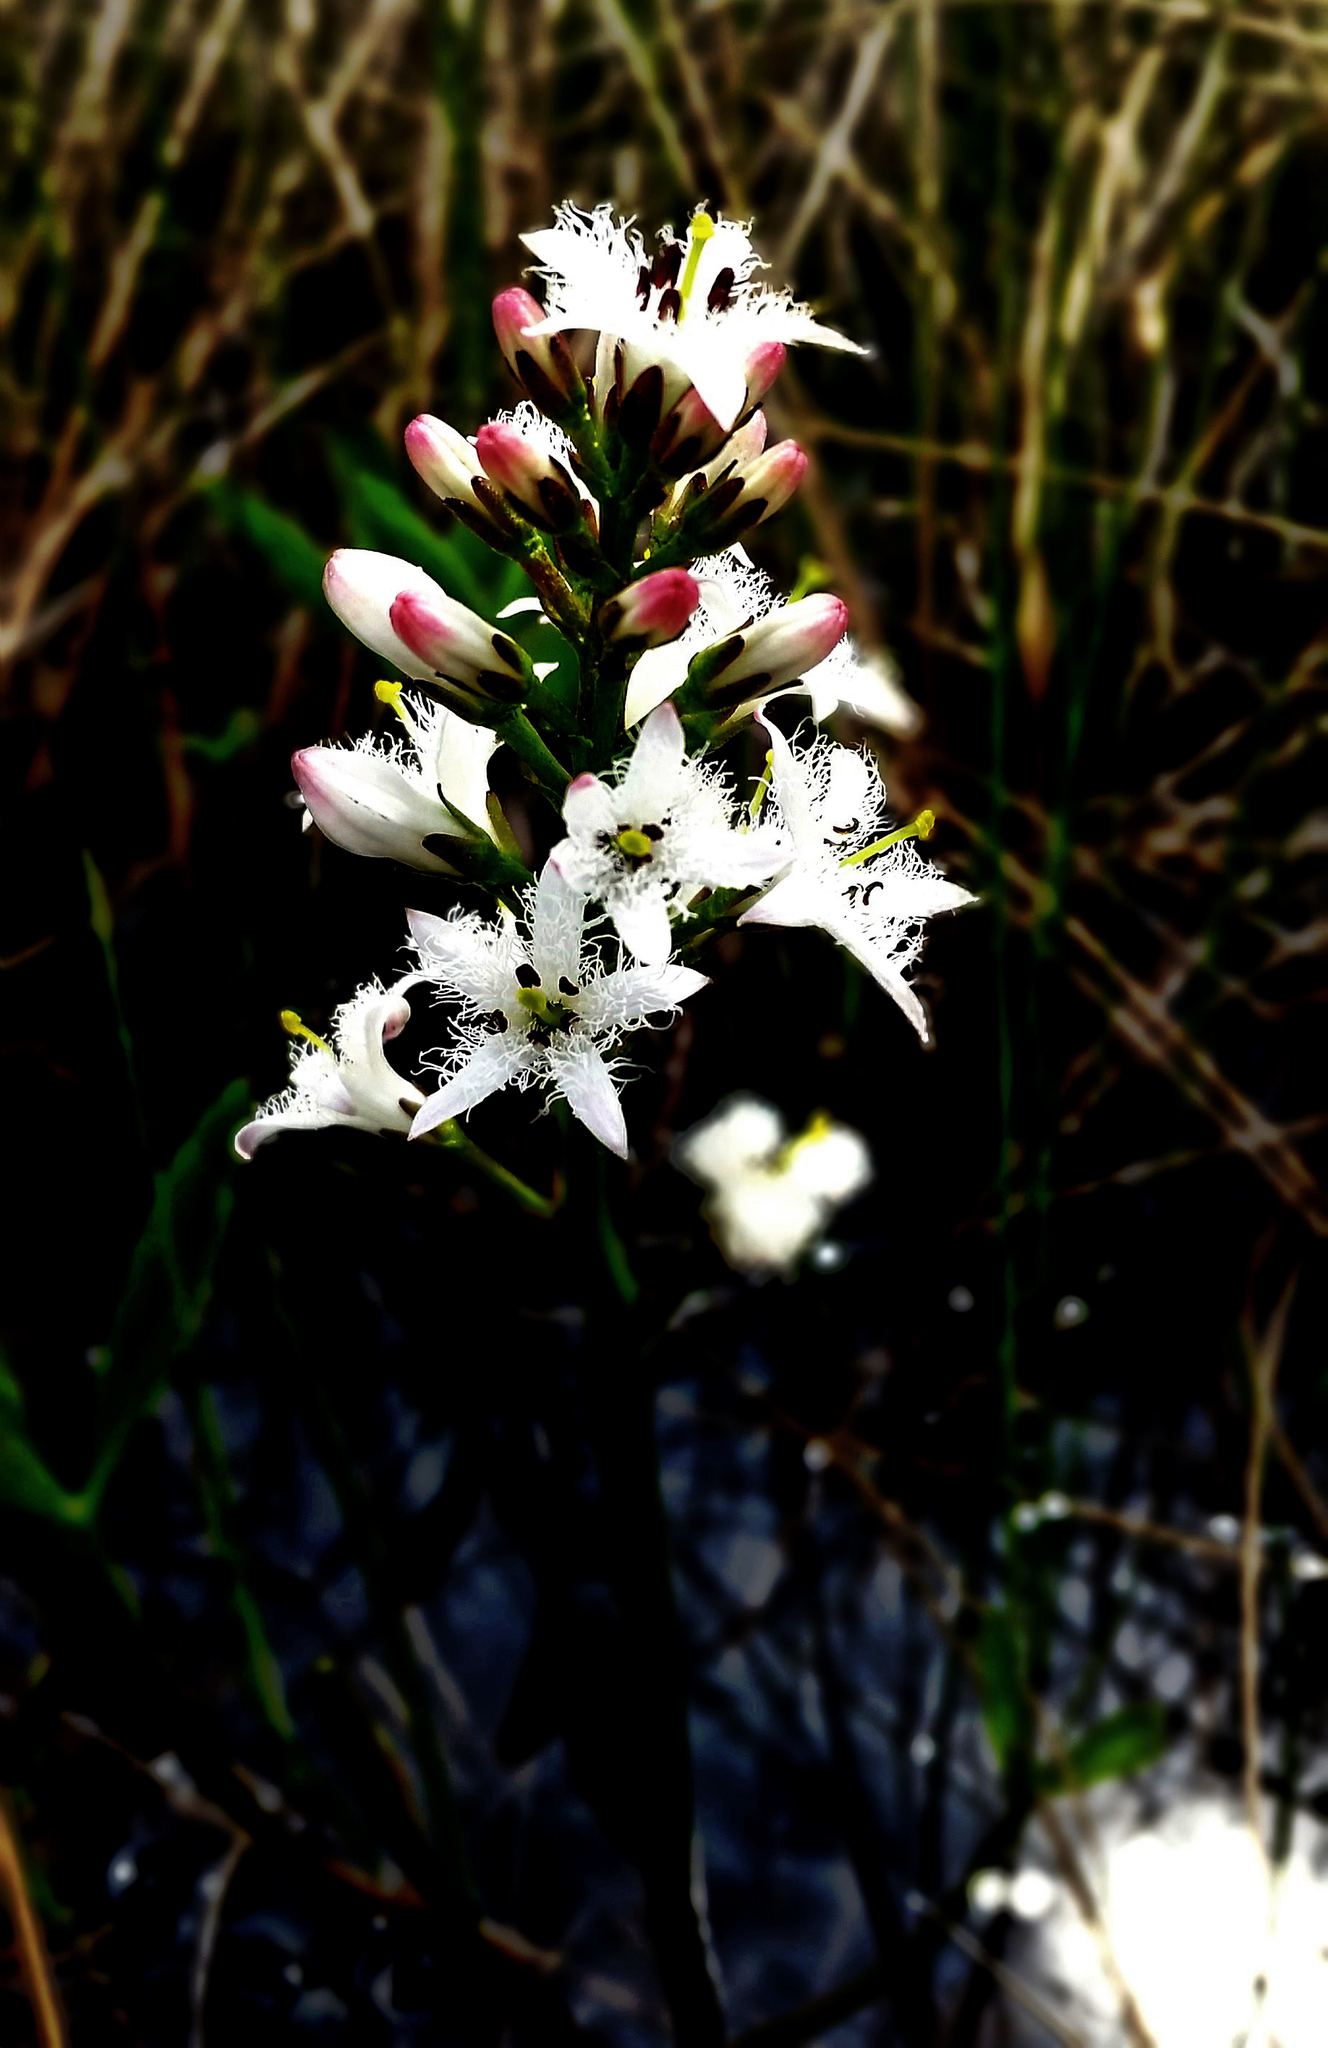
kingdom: Plantae
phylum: Tracheophyta
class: Magnoliopsida
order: Asterales
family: Menyanthaceae
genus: Menyanthes
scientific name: Menyanthes trifoliata
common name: Bogbean
